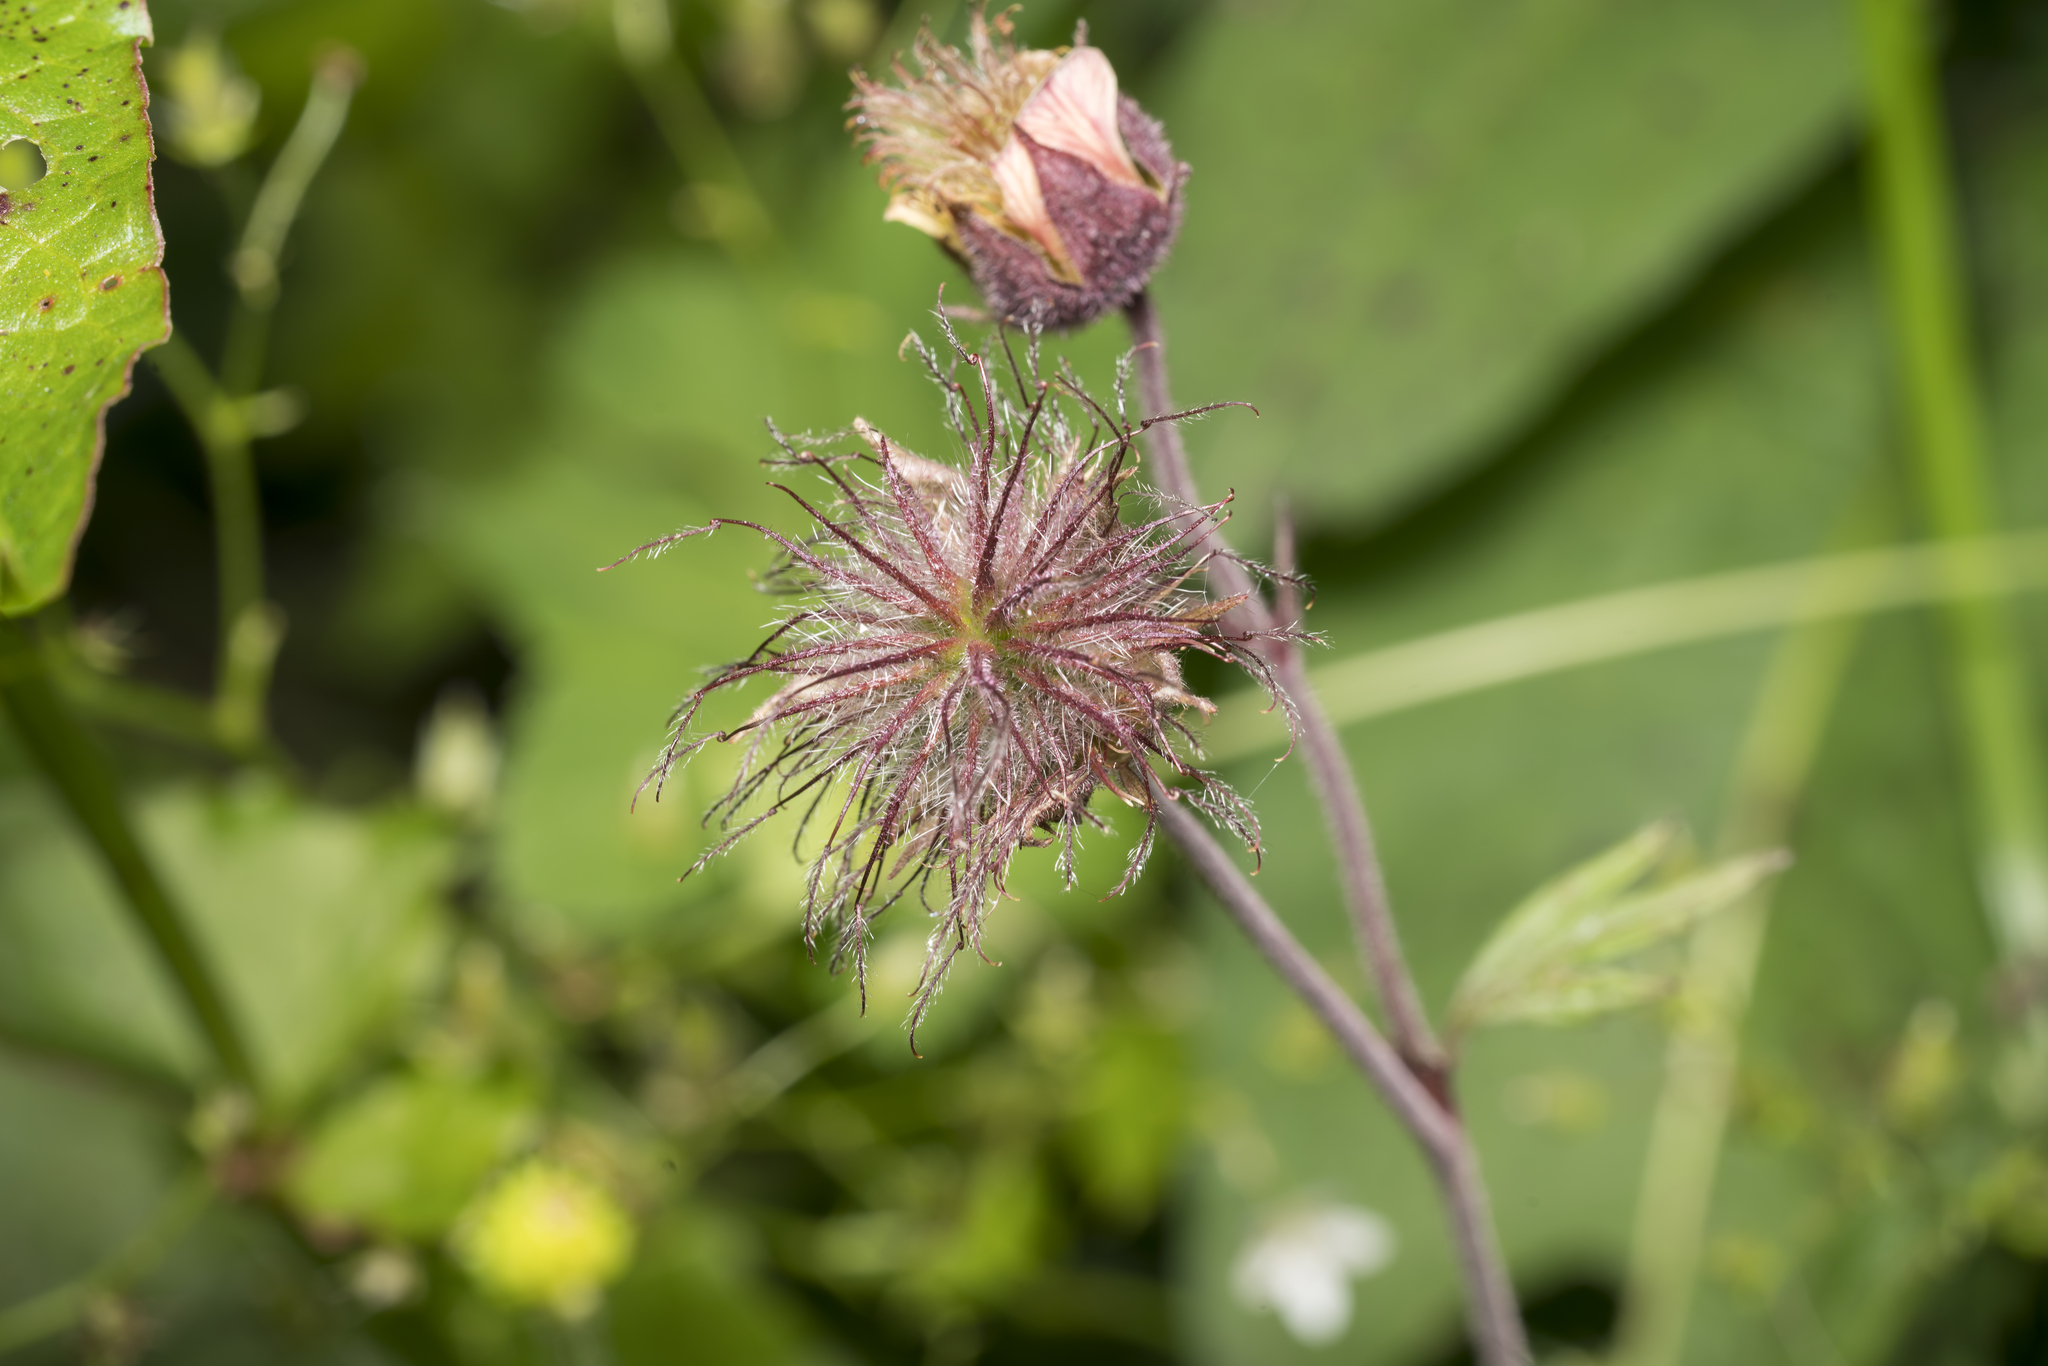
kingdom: Plantae
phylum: Tracheophyta
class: Magnoliopsida
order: Rosales
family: Rosaceae
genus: Geum
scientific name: Geum rivale
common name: Water avens
